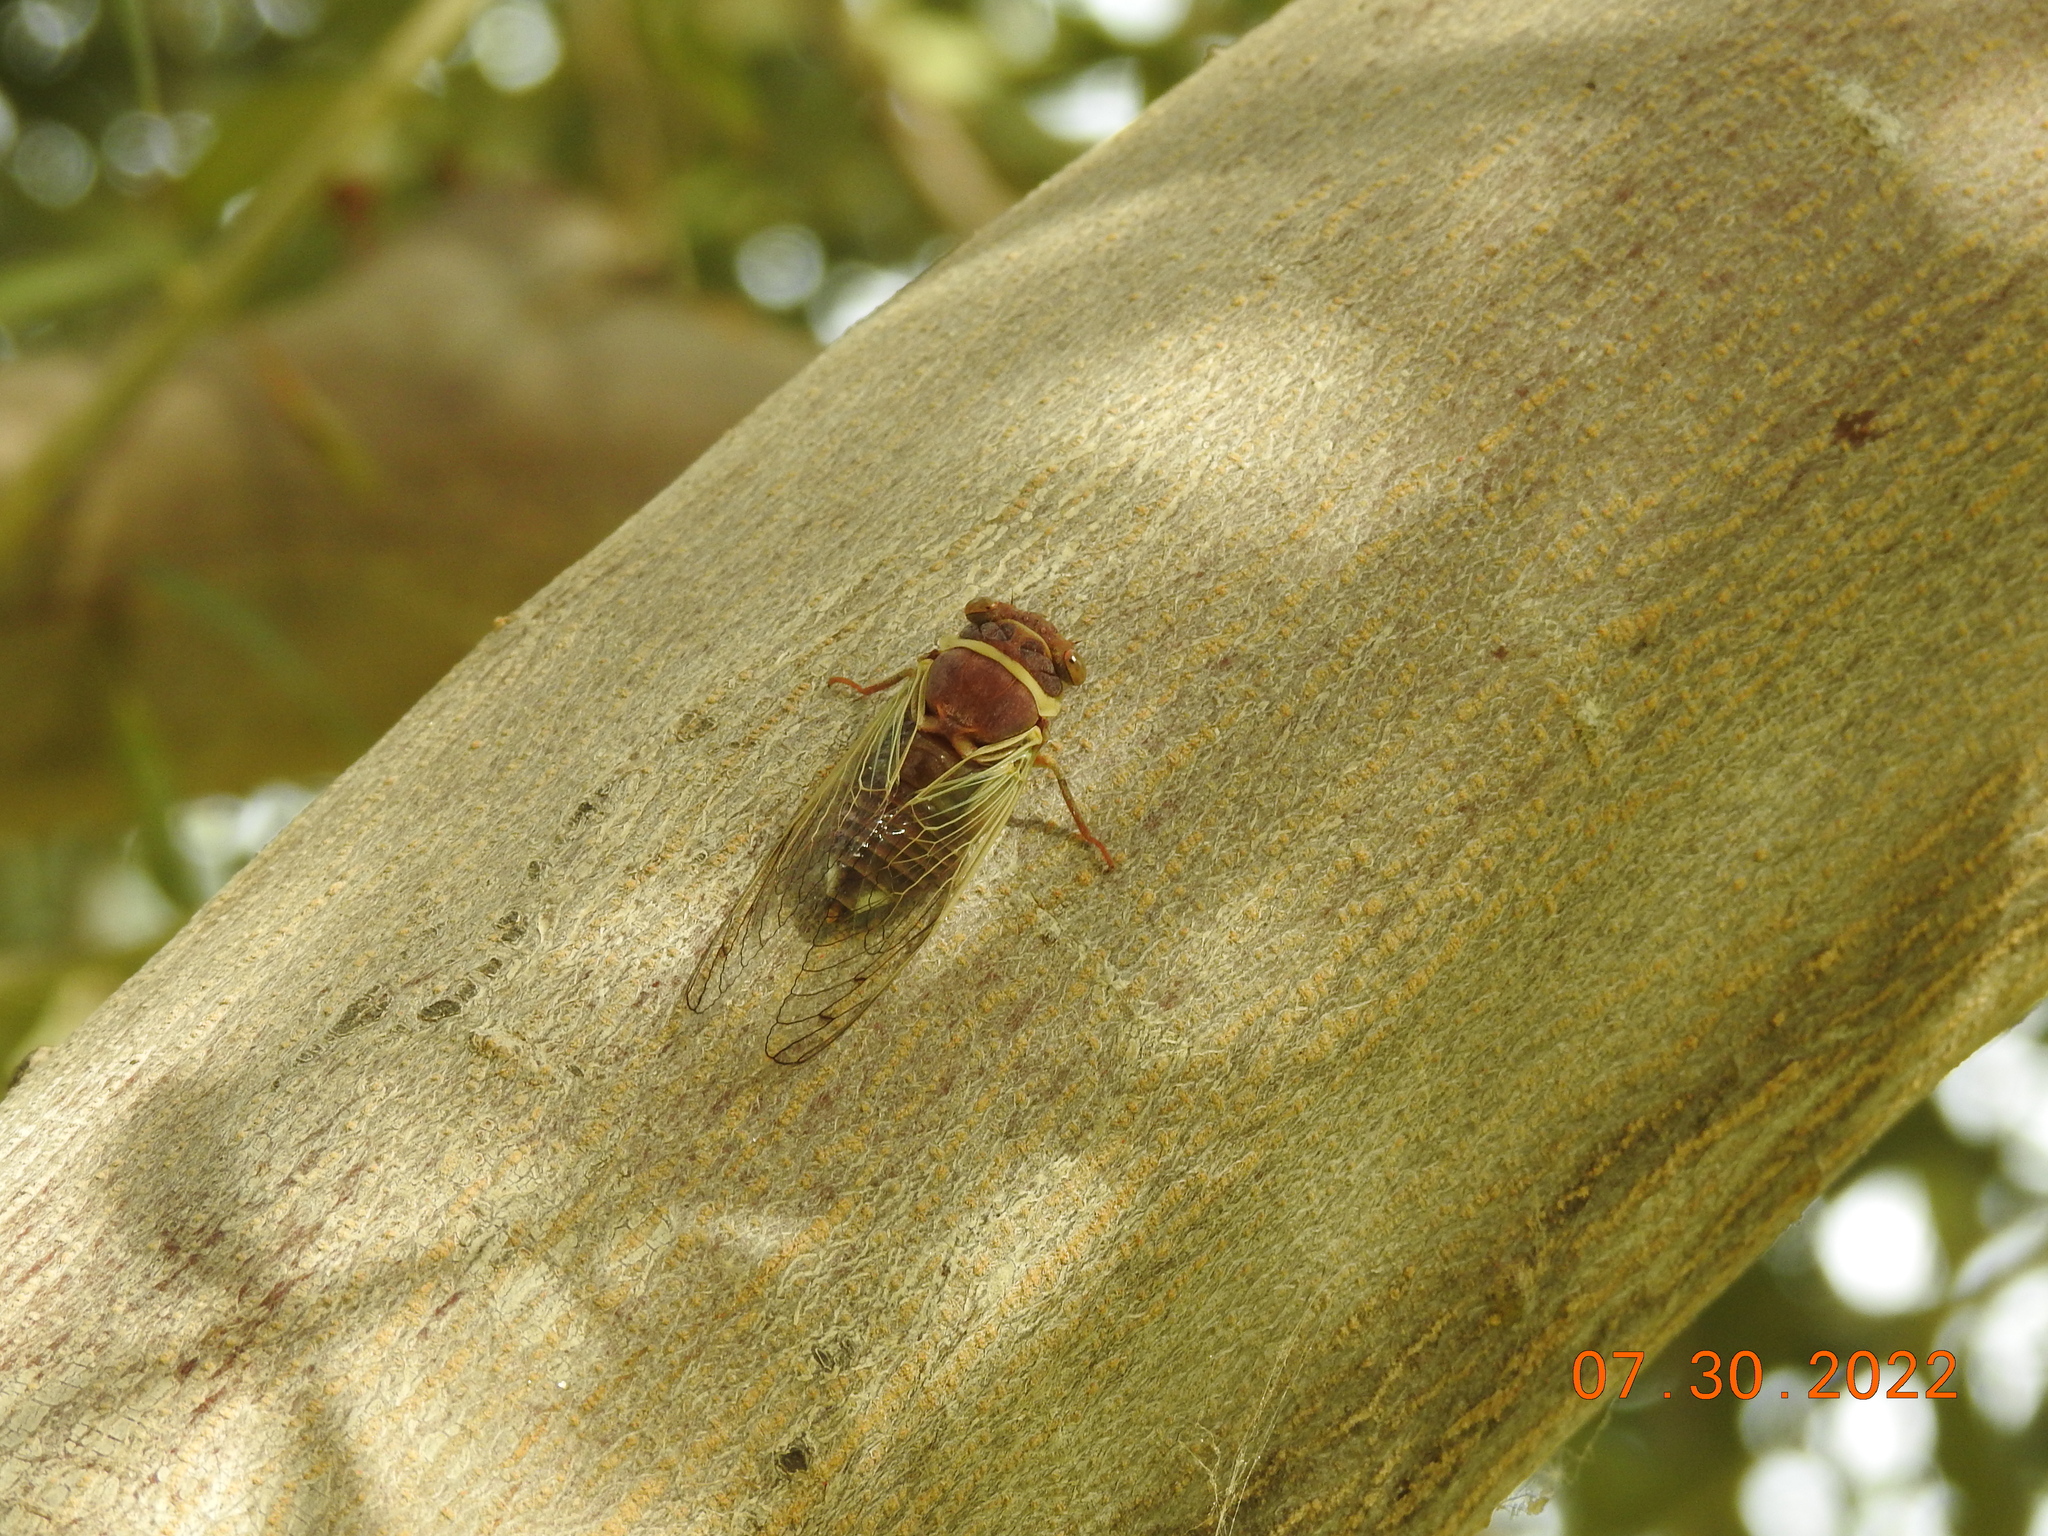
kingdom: Animalia
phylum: Arthropoda
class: Insecta
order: Hemiptera
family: Cicadidae
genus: Diceroprocta
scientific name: Diceroprocta apache
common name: Desert cicada
